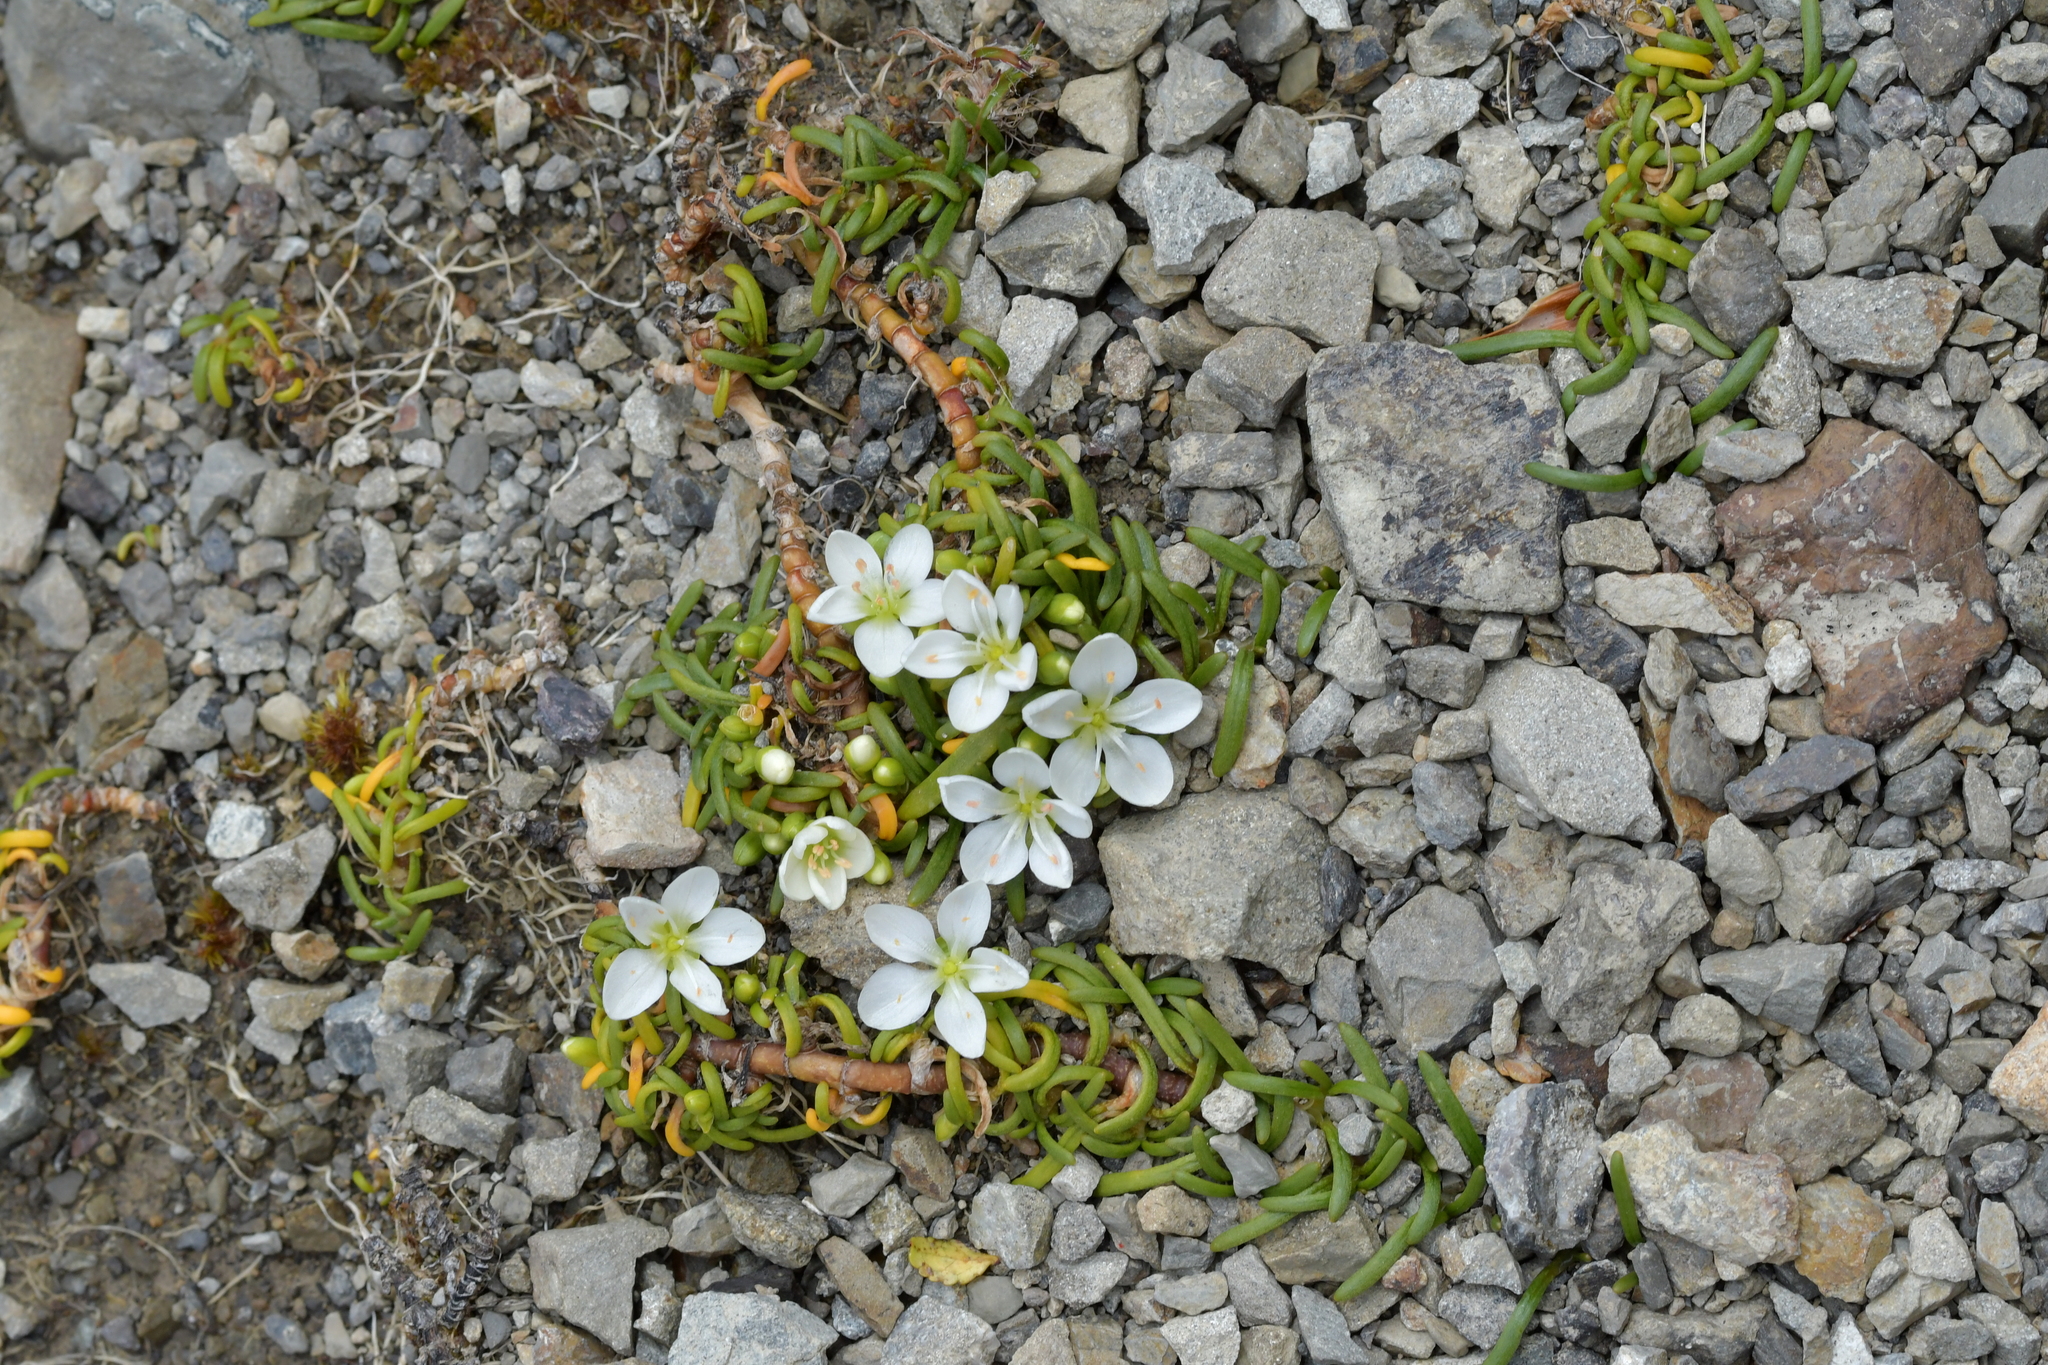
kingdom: Plantae
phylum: Tracheophyta
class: Magnoliopsida
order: Caryophyllales
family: Montiaceae
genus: Montia
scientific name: Montia calycina
